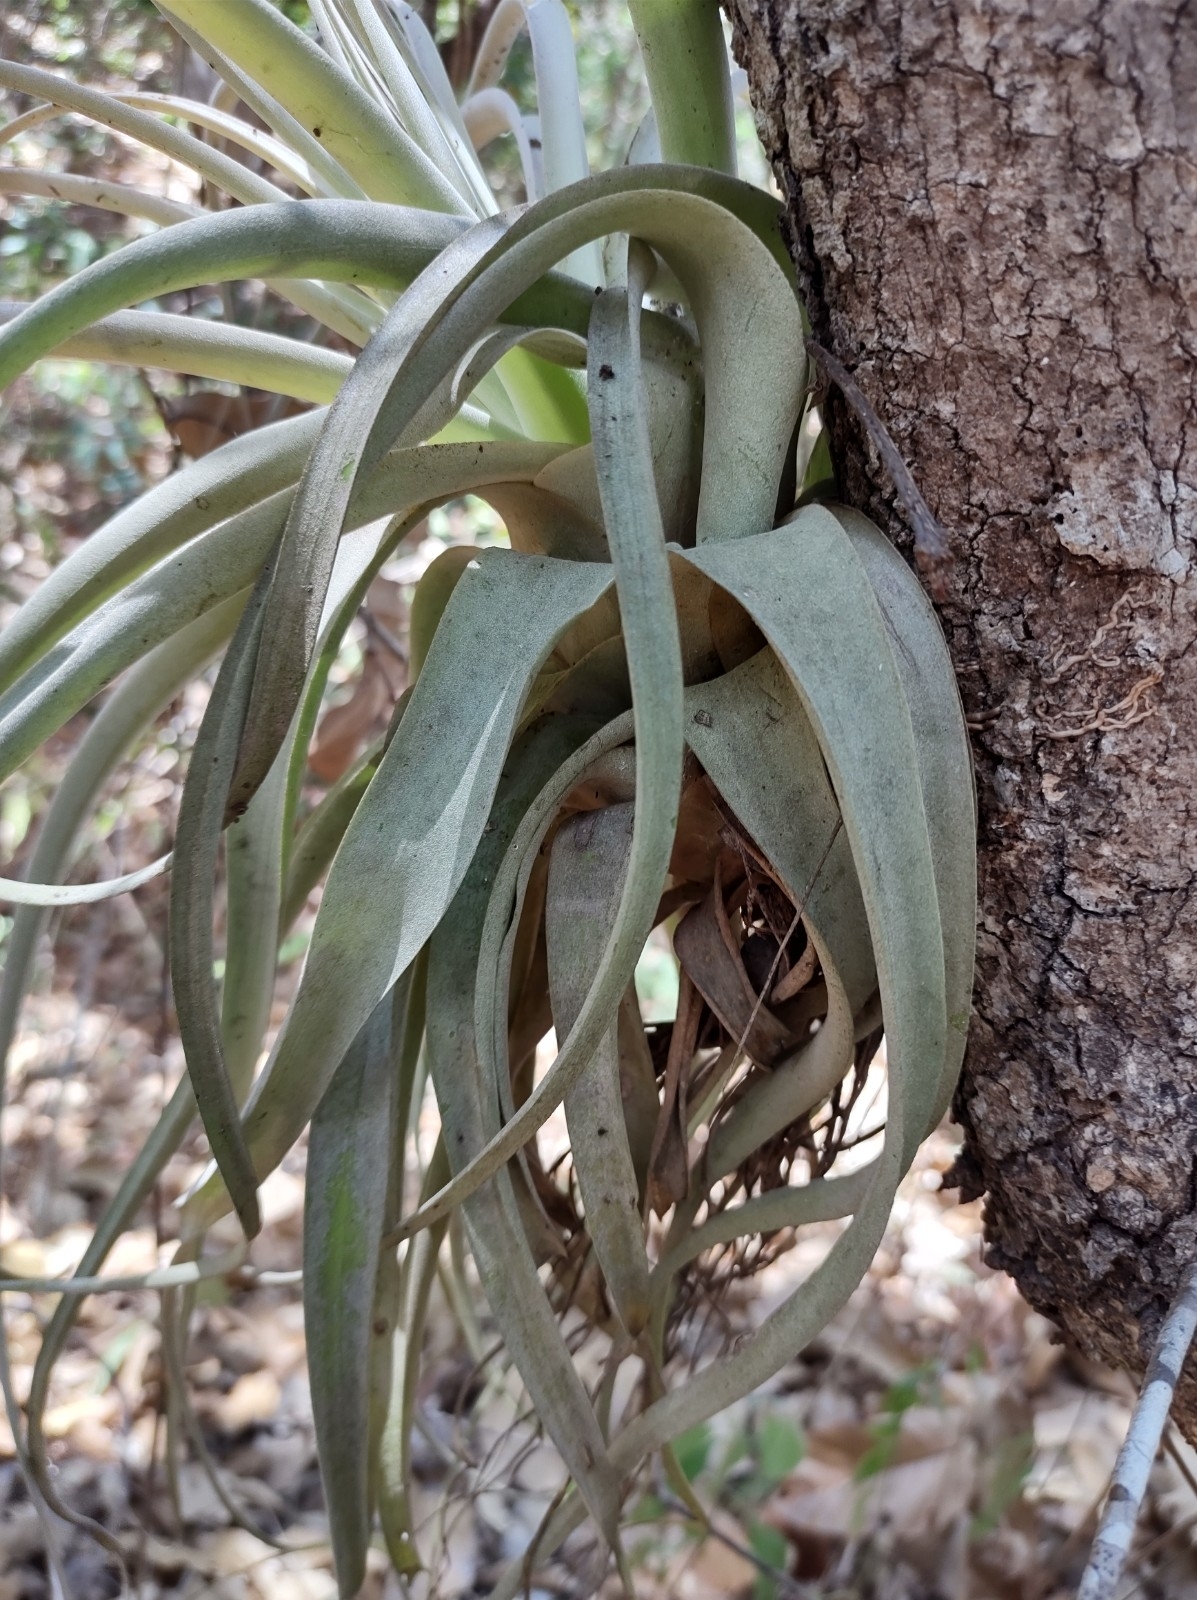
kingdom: Plantae
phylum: Tracheophyta
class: Liliopsida
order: Poales
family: Bromeliaceae
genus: Tillandsia
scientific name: Tillandsia xerographica
